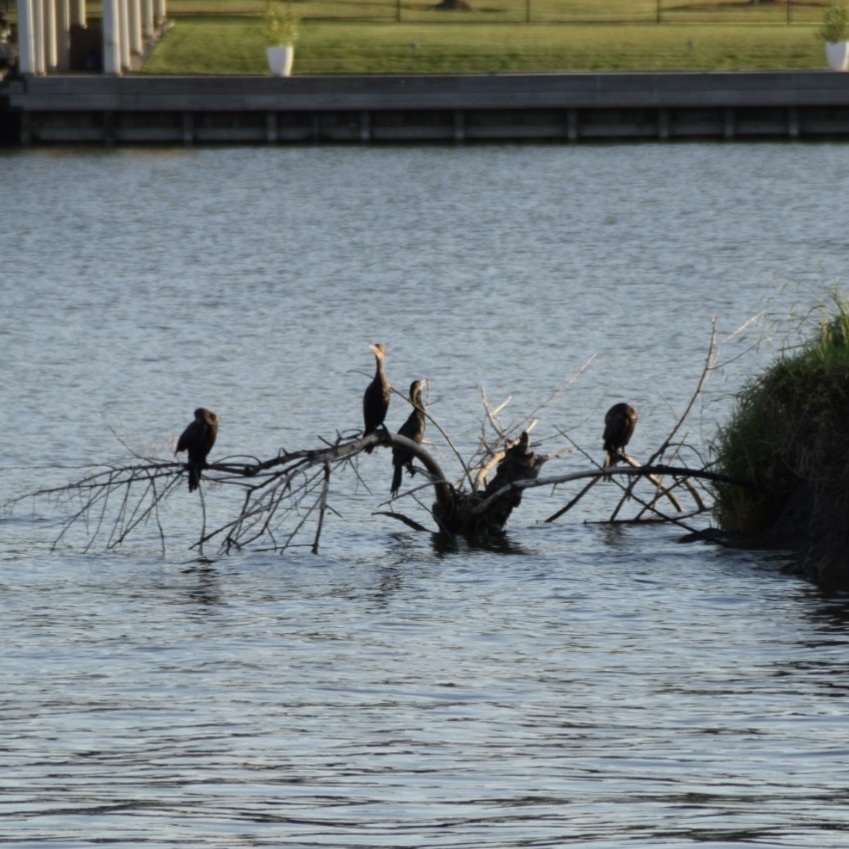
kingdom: Animalia
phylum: Chordata
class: Aves
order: Suliformes
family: Phalacrocoracidae
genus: Phalacrocorax
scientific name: Phalacrocorax auritus
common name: Double-crested cormorant
